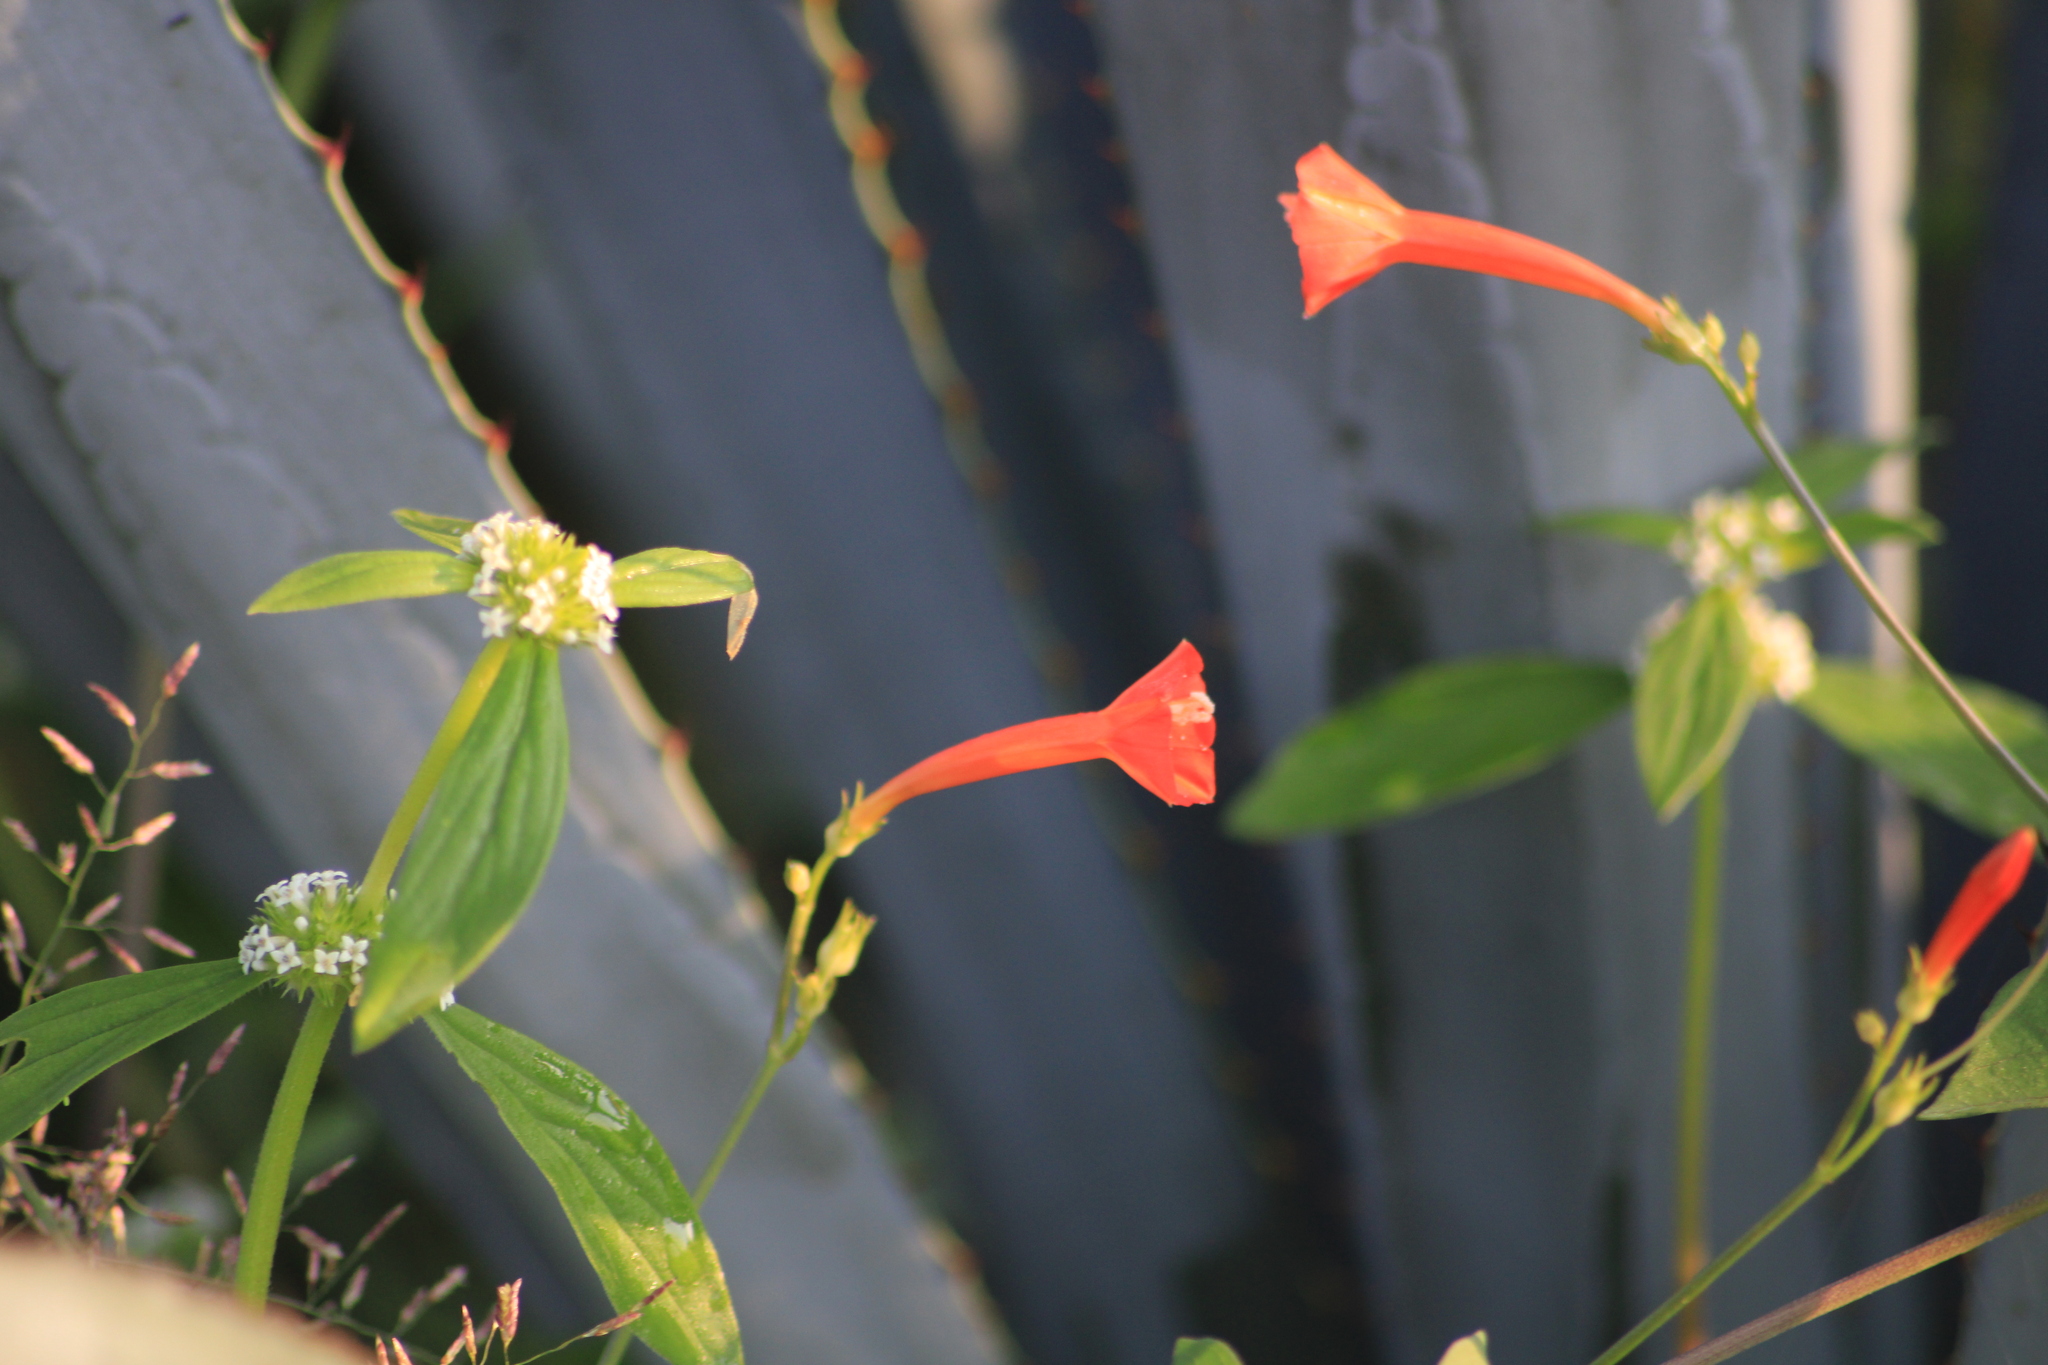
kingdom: Plantae
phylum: Tracheophyta
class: Magnoliopsida
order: Solanales
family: Convolvulaceae
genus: Ipomoea
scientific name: Ipomoea hederifolia
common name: Ivy-leaf morning-glory
